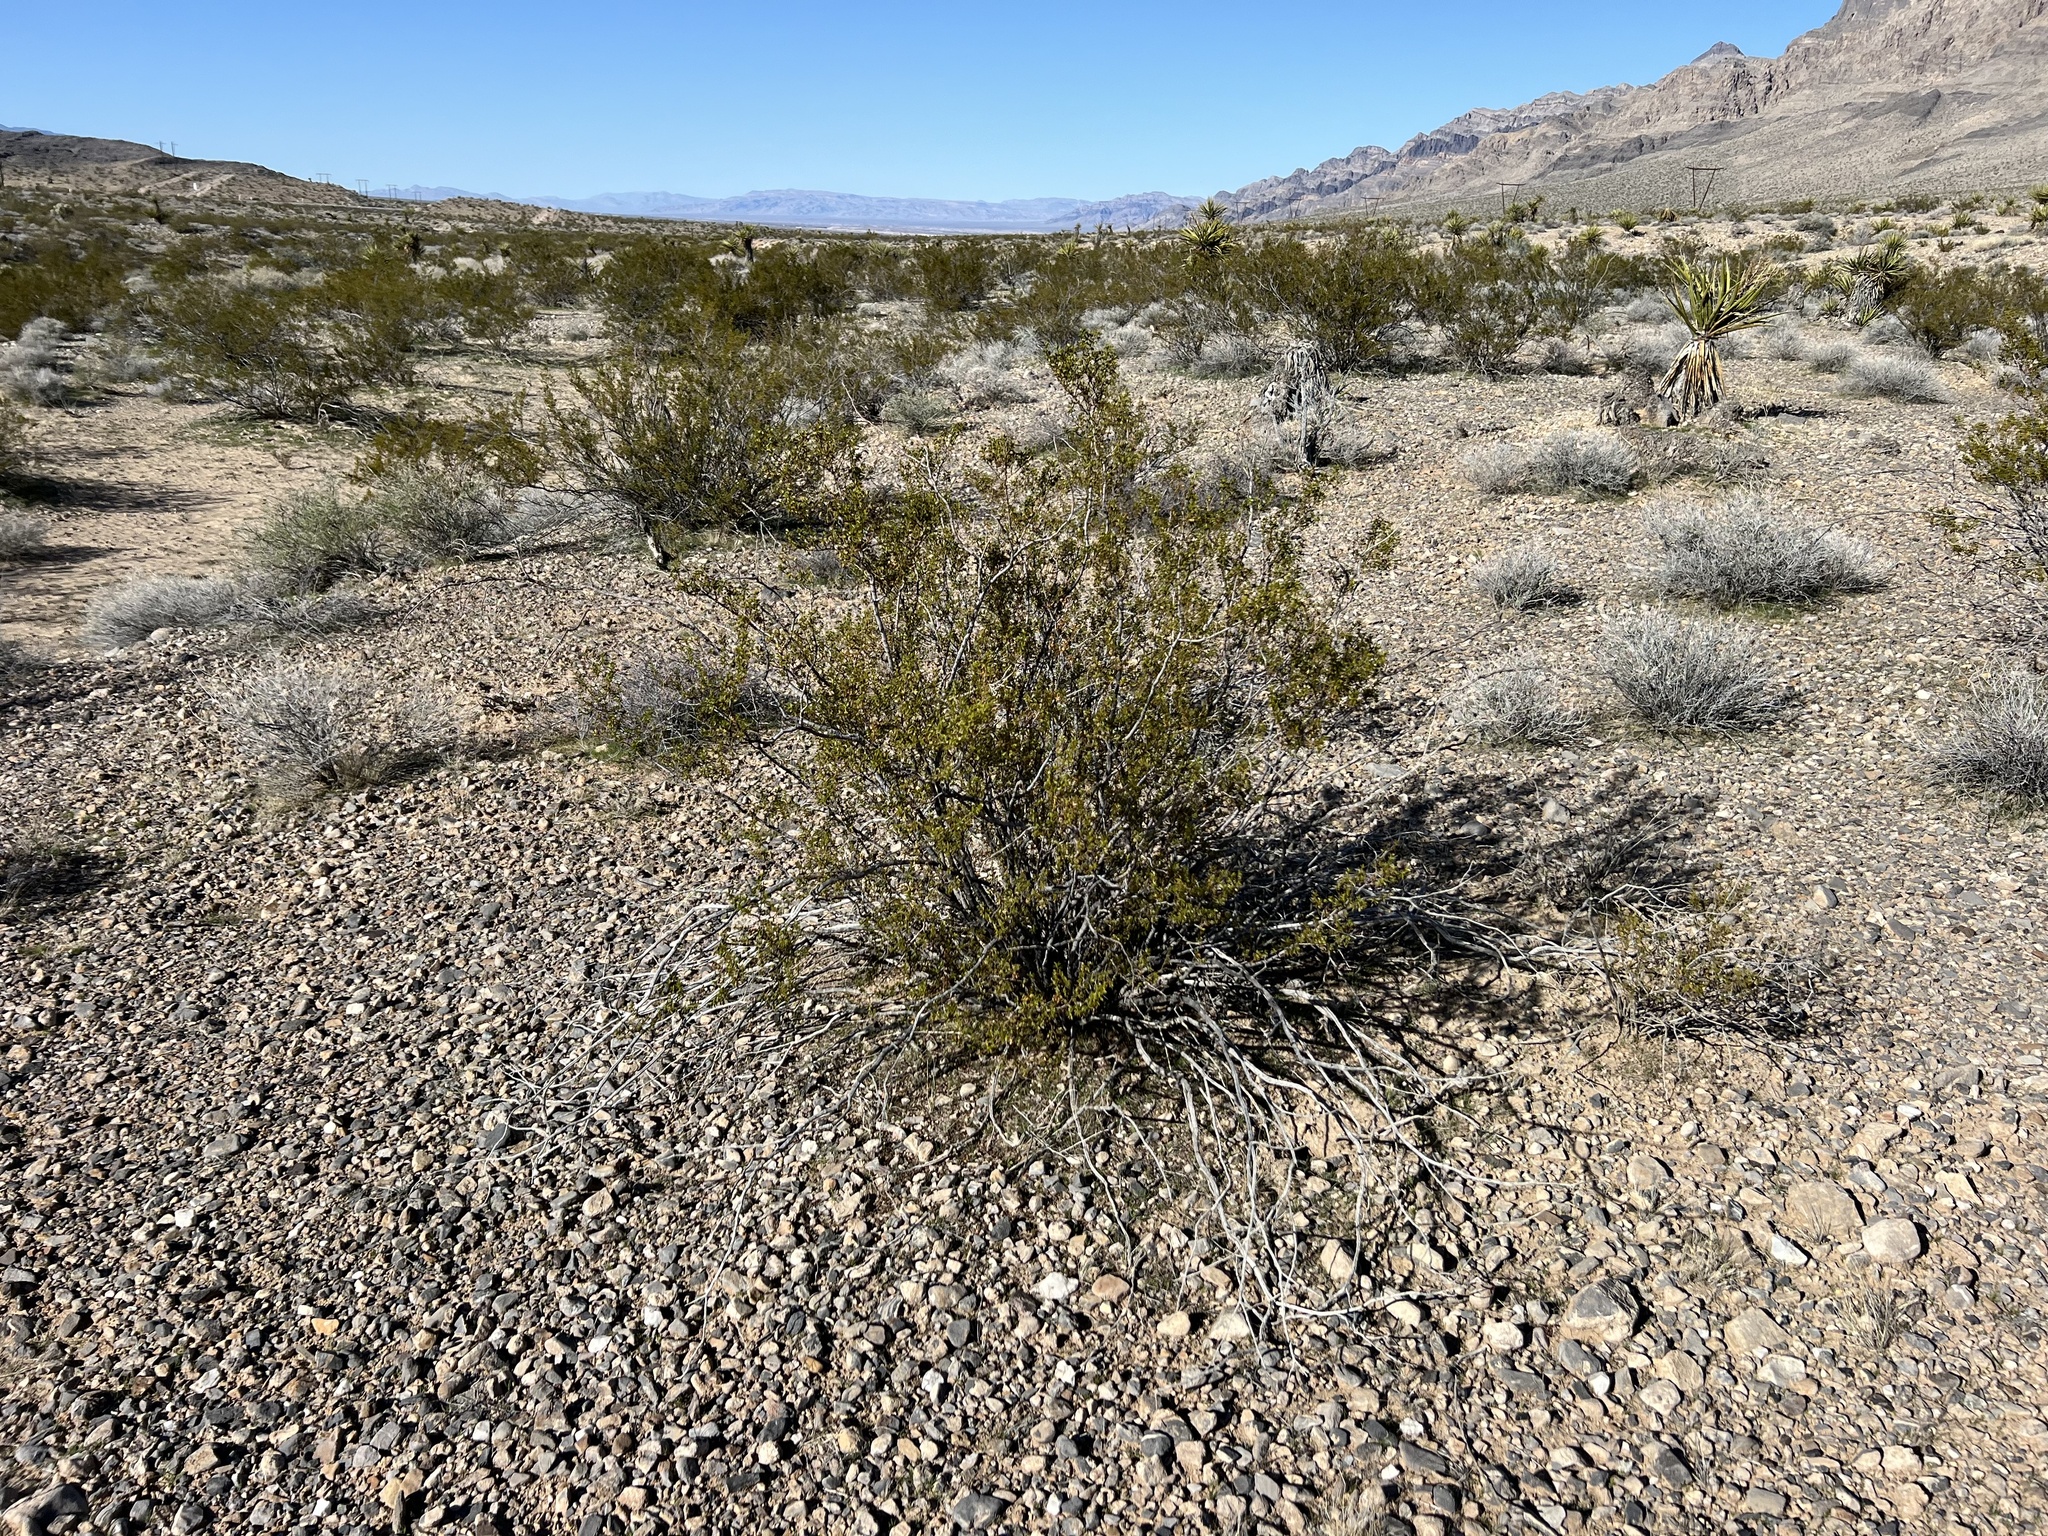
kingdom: Plantae
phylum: Tracheophyta
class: Magnoliopsida
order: Zygophyllales
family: Zygophyllaceae
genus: Larrea
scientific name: Larrea tridentata
